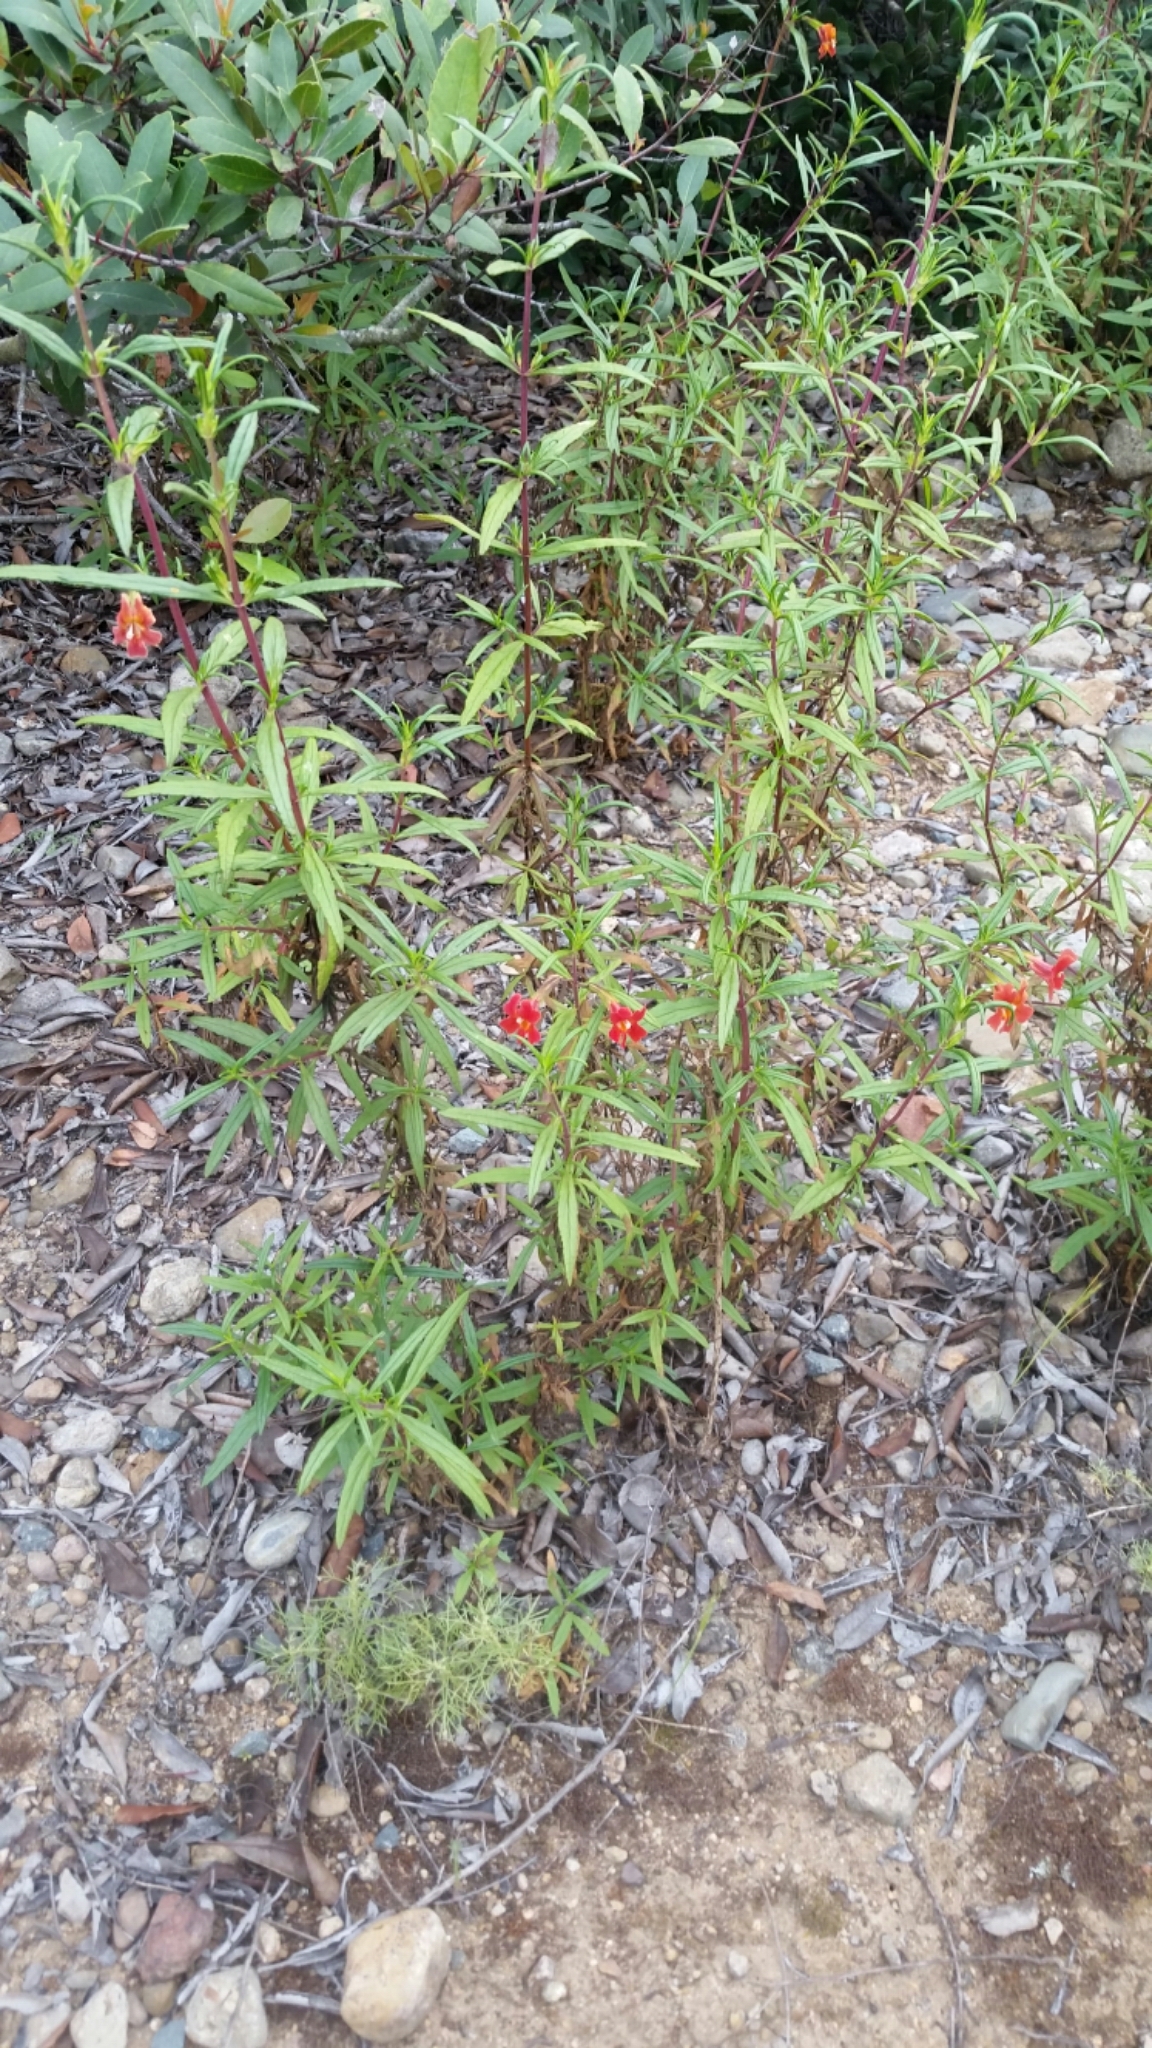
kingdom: Plantae
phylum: Tracheophyta
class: Magnoliopsida
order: Lamiales
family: Phrymaceae
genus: Diplacus
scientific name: Diplacus puniceus
